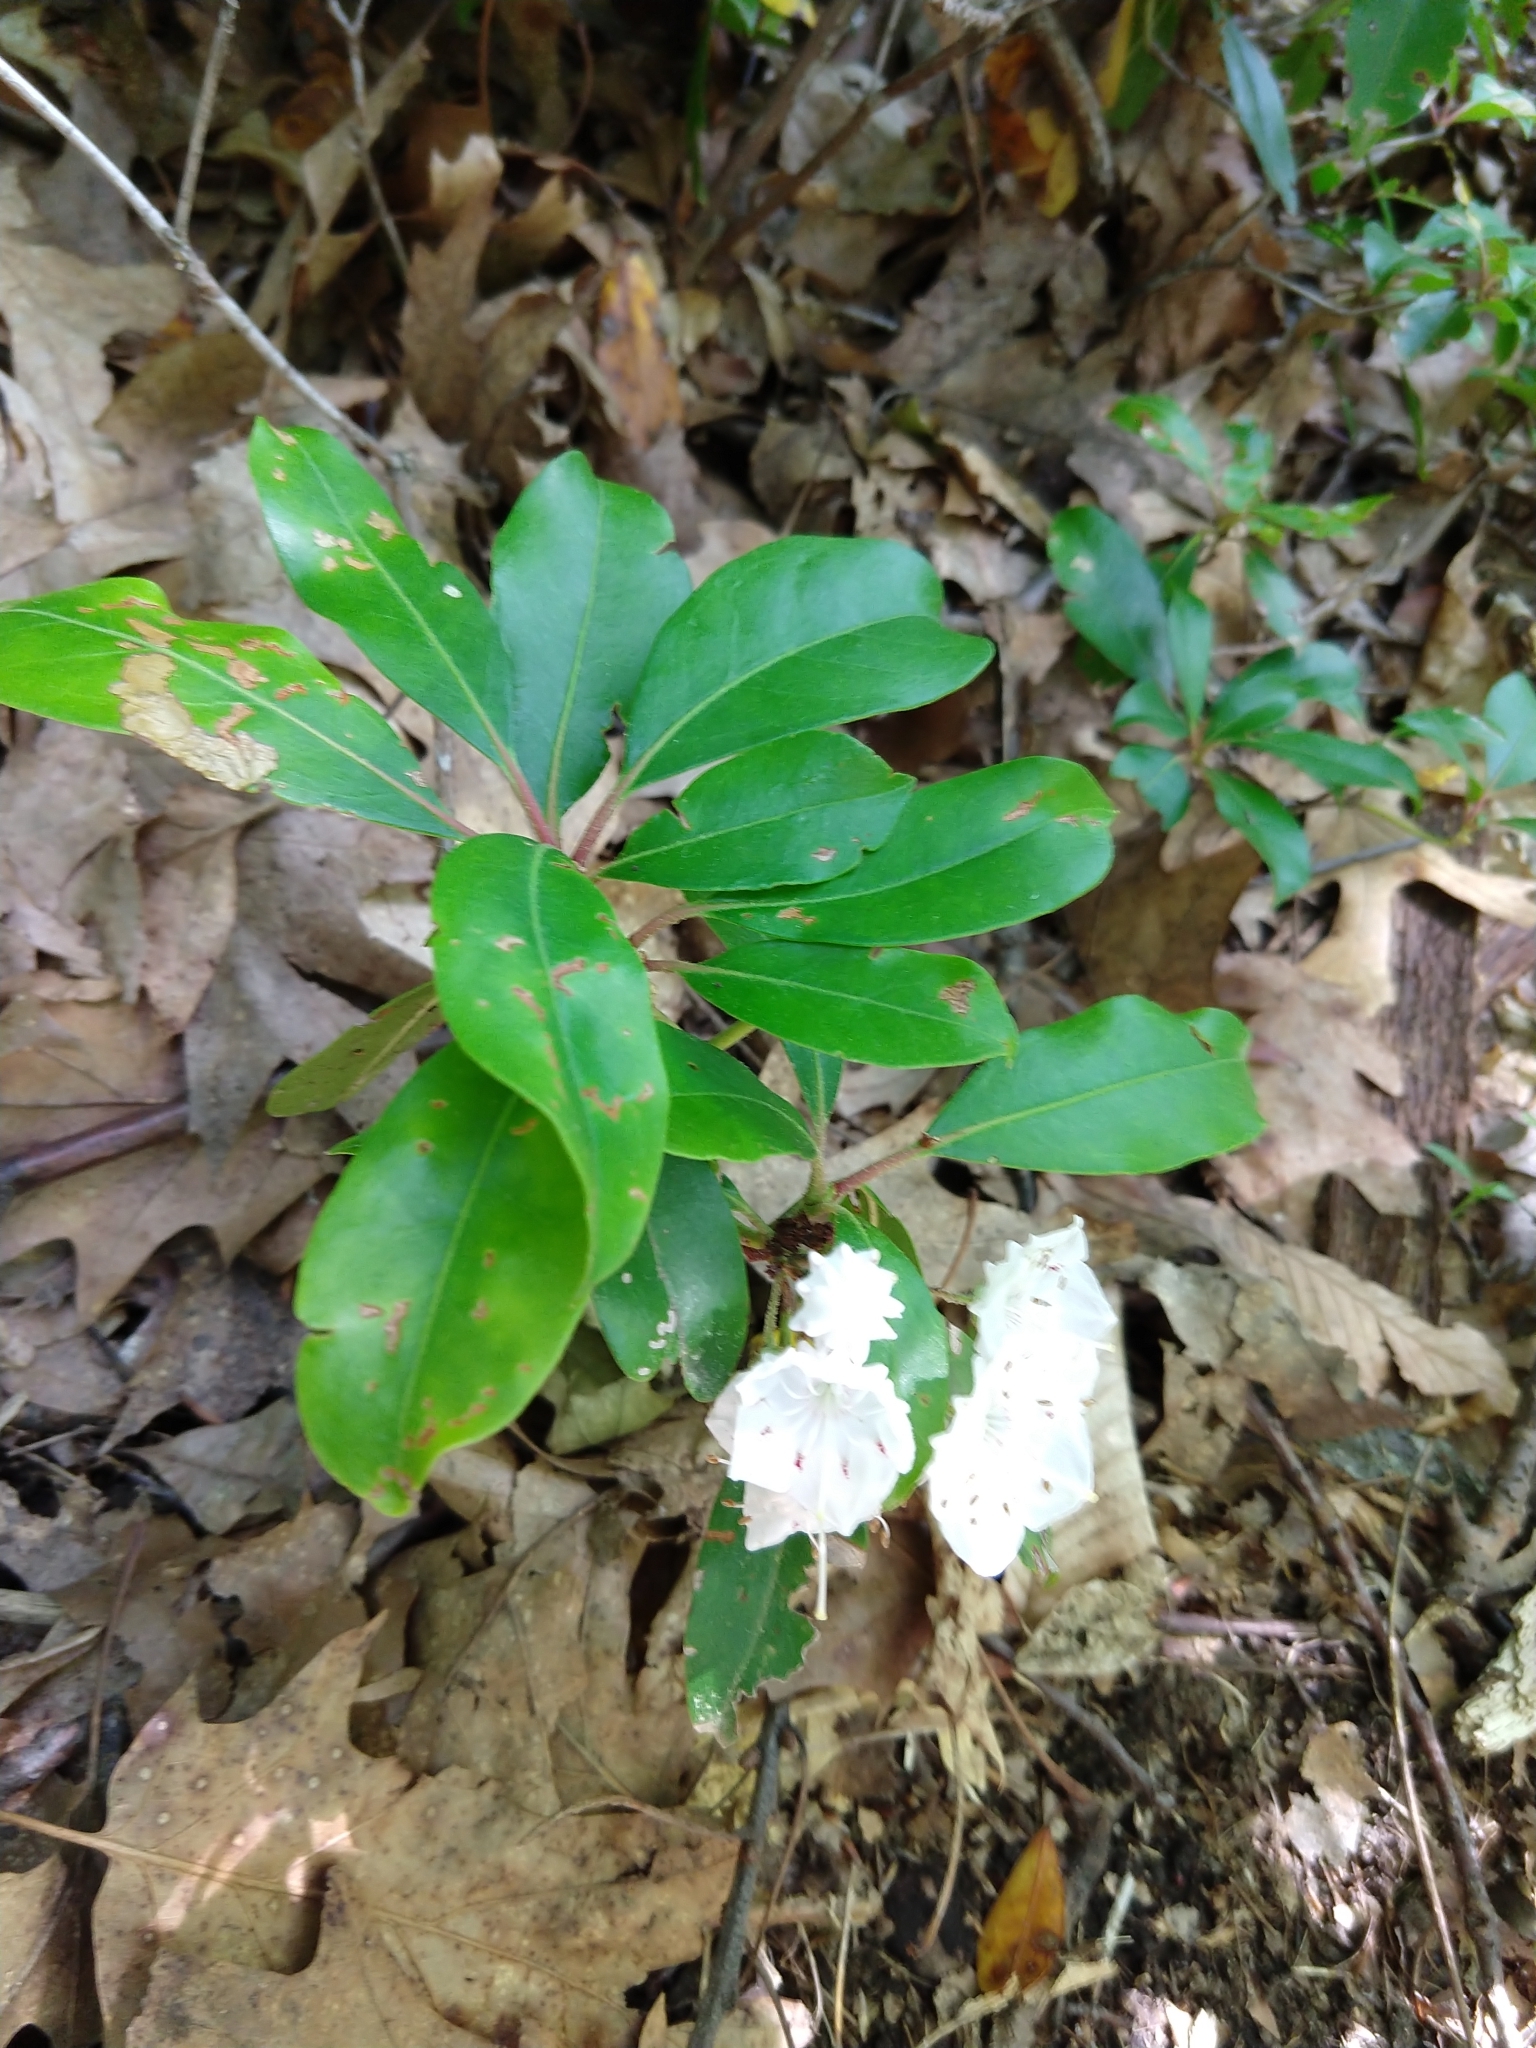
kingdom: Plantae
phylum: Tracheophyta
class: Magnoliopsida
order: Ericales
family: Ericaceae
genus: Kalmia
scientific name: Kalmia latifolia
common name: Mountain-laurel
